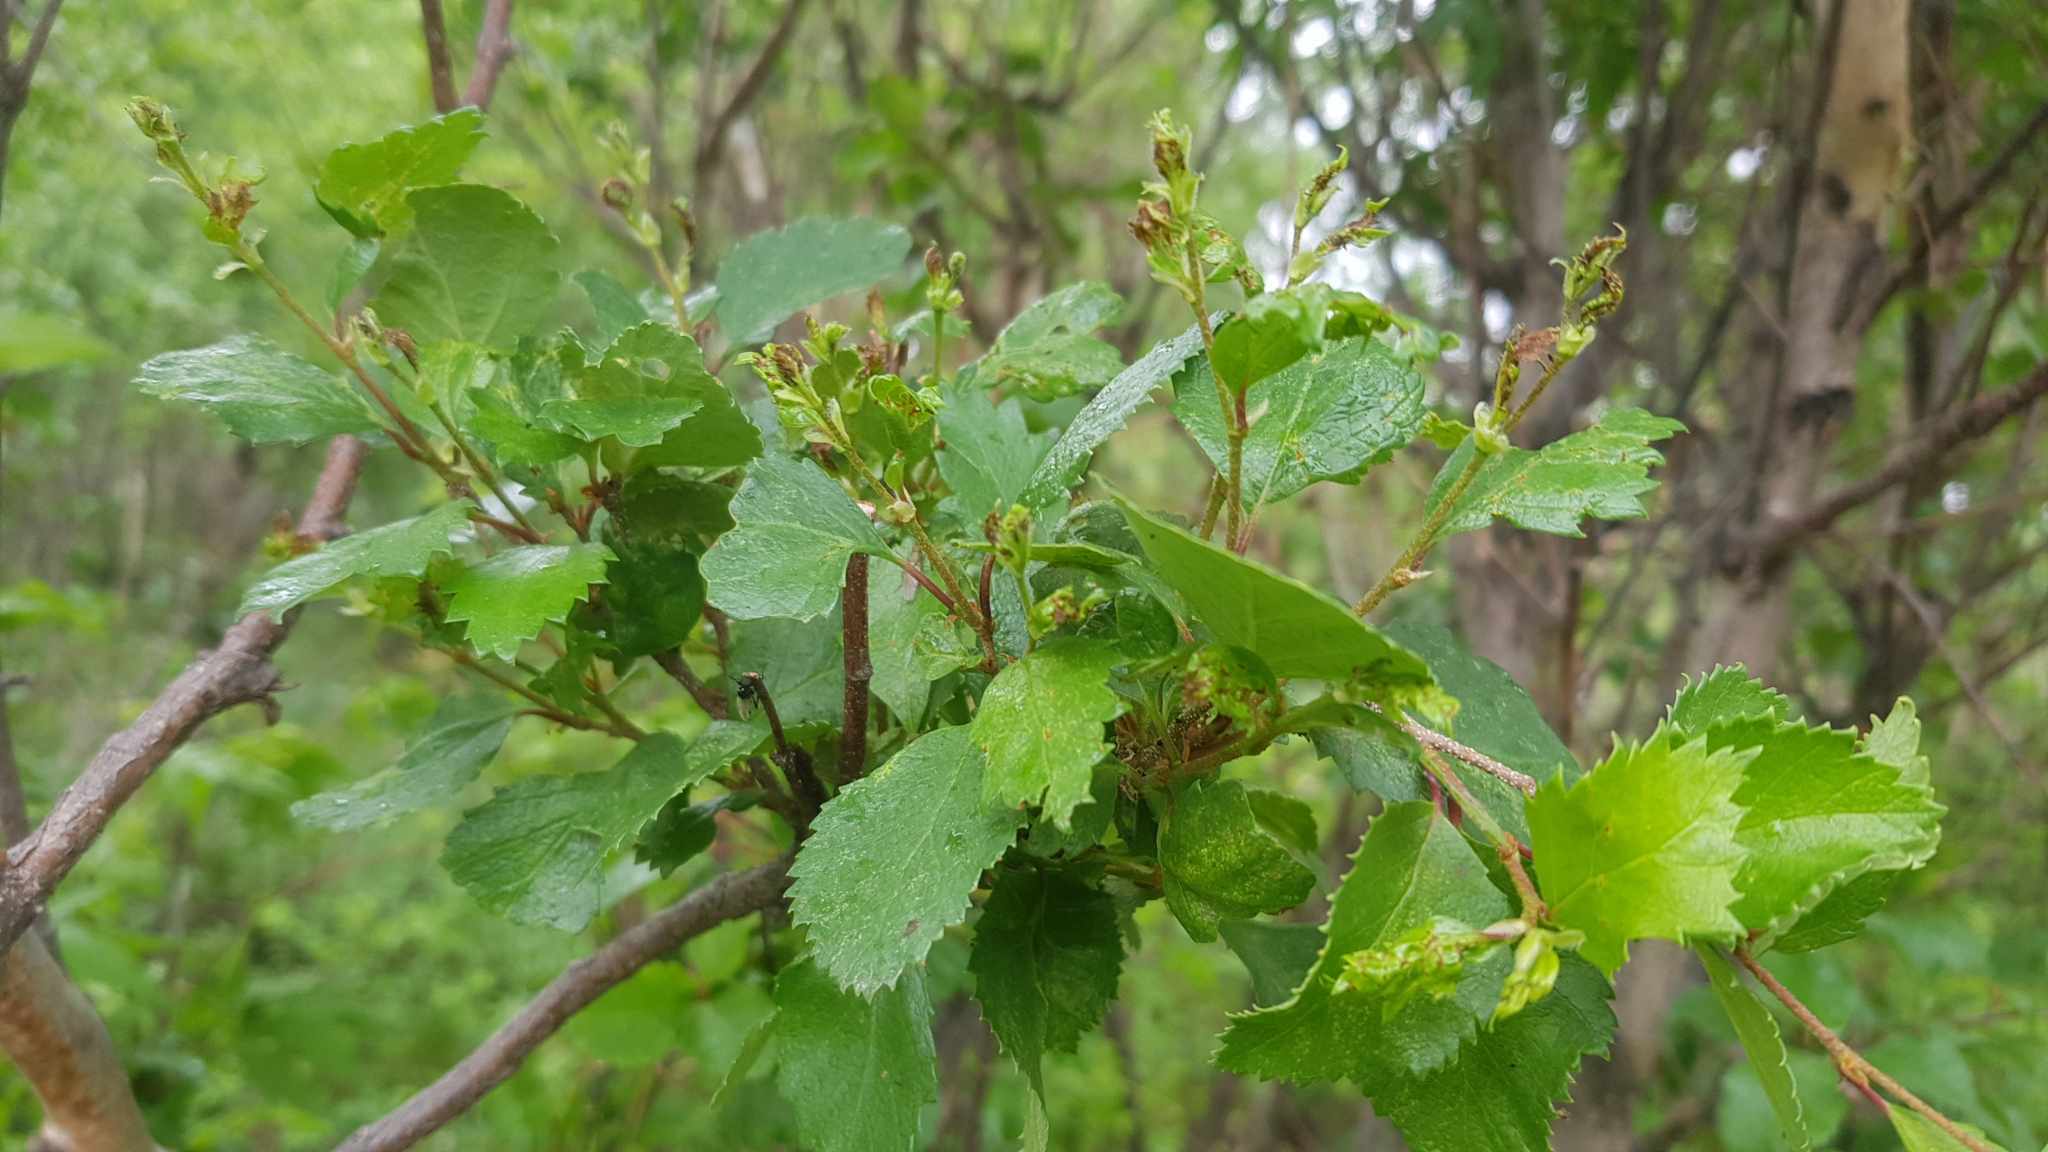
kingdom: Plantae
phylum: Tracheophyta
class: Magnoliopsida
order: Fagales
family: Betulaceae
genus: Betula
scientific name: Betula fruticosa
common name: Japanese bog birch
